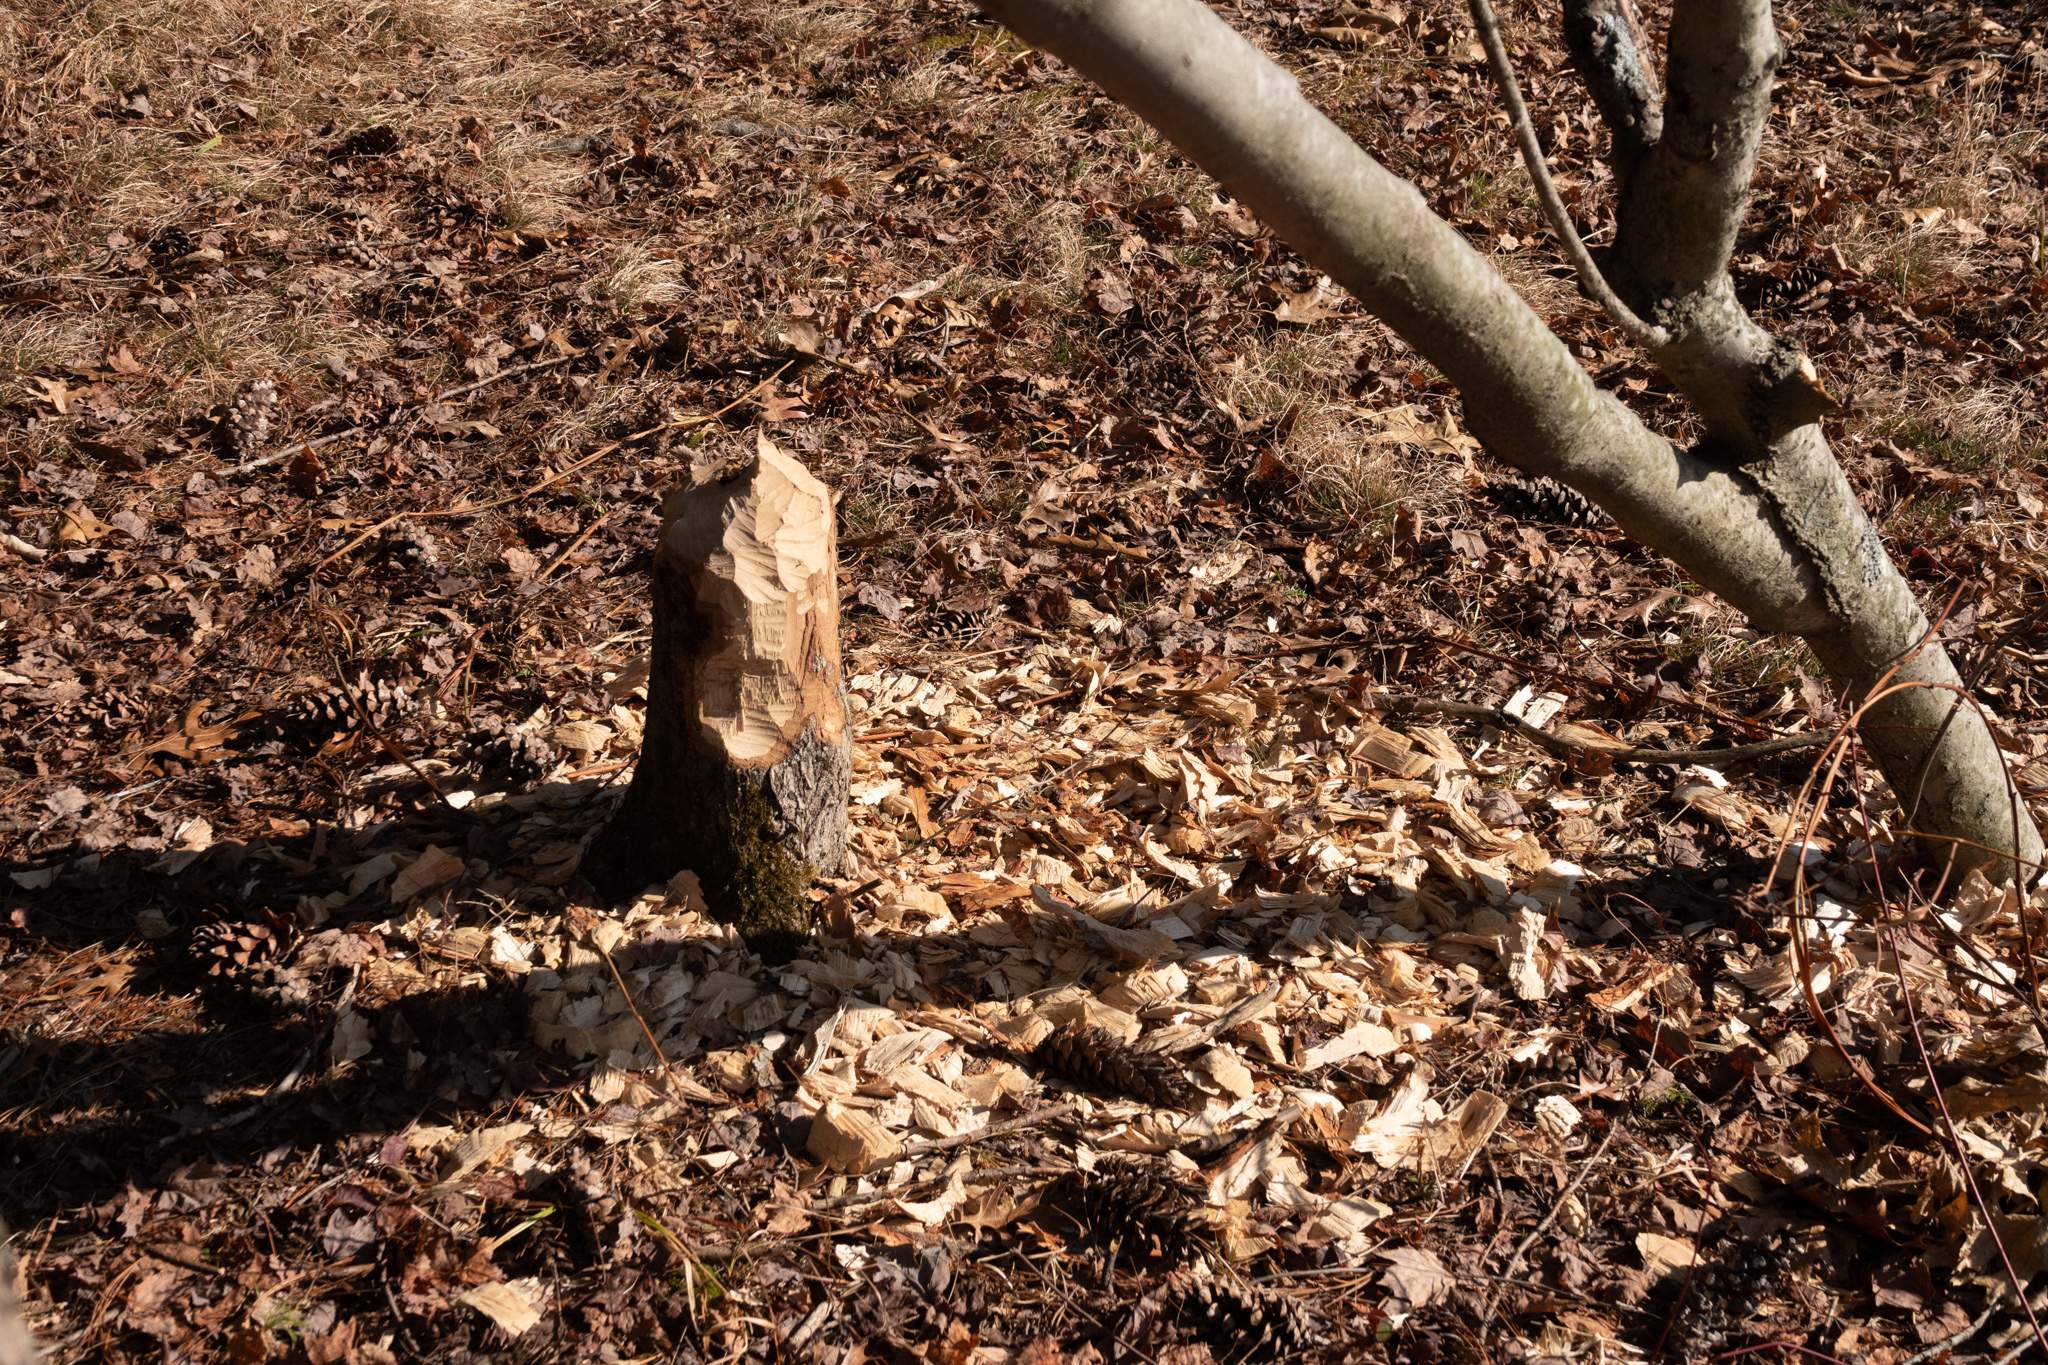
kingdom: Animalia
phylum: Chordata
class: Mammalia
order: Rodentia
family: Castoridae
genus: Castor
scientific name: Castor canadensis
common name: American beaver
